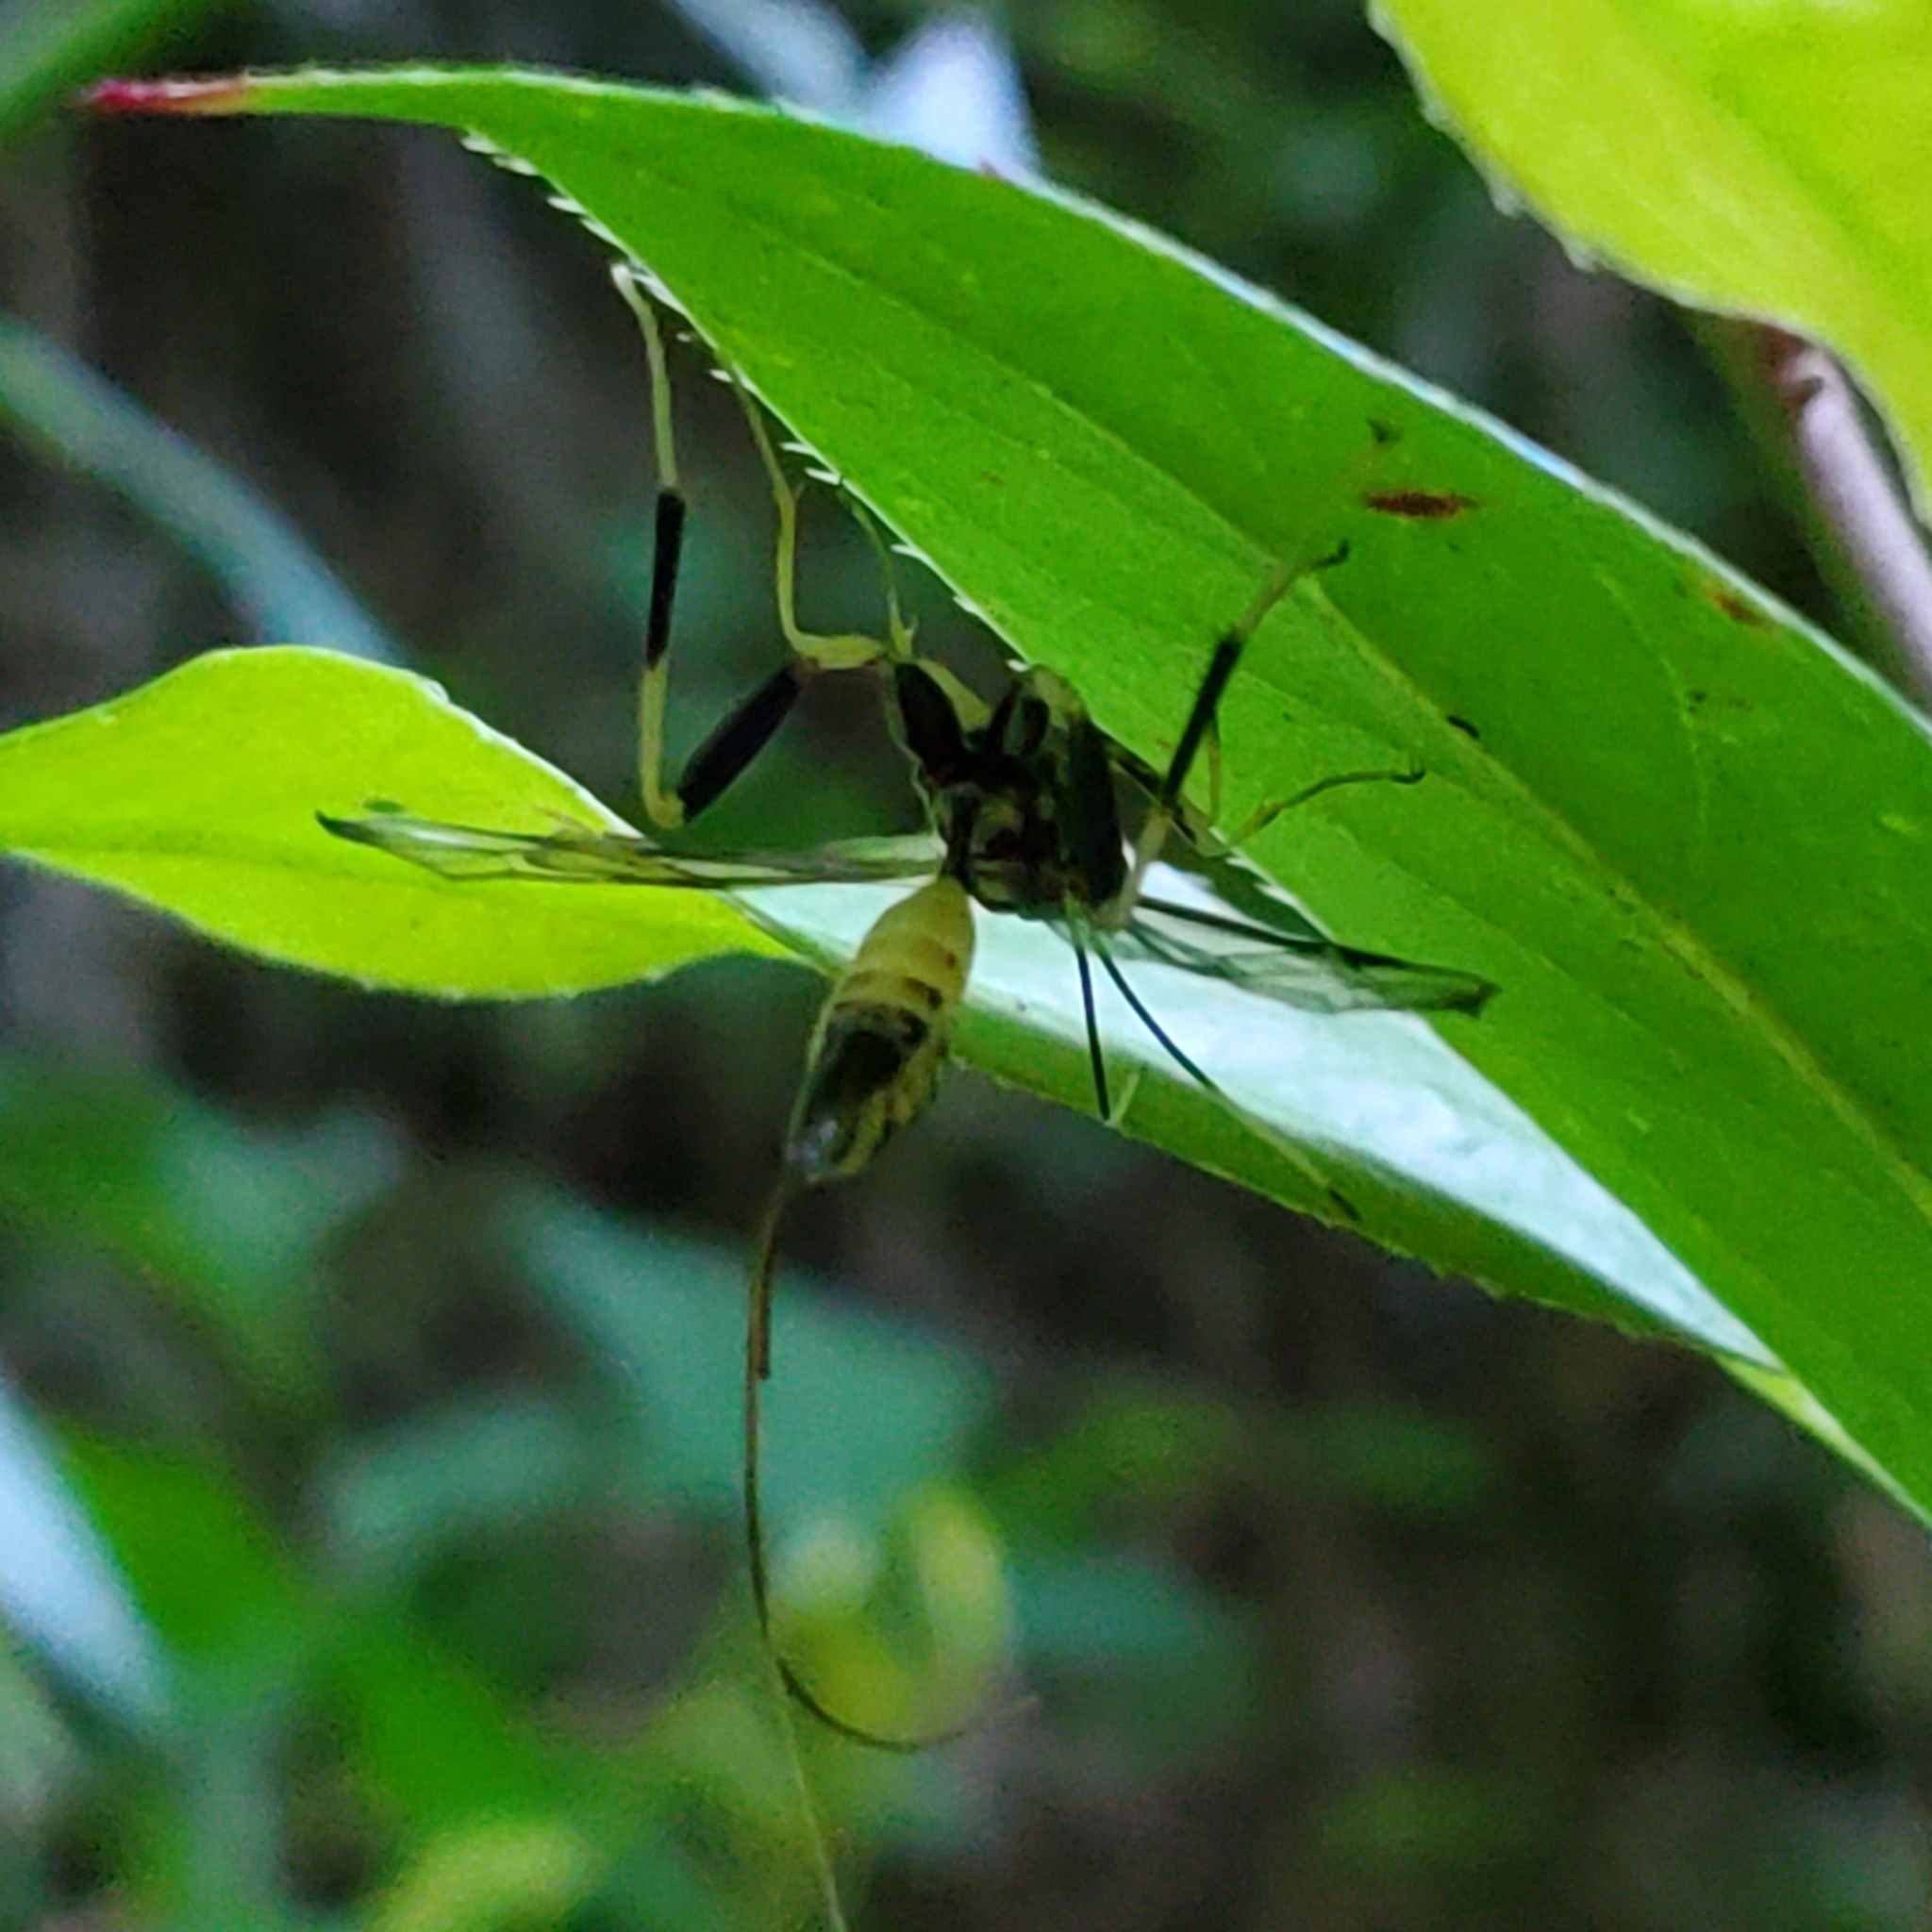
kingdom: Animalia
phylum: Arthropoda
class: Insecta
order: Hymenoptera
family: Ichneumonidae
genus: Arotes
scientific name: Arotes amoenus
